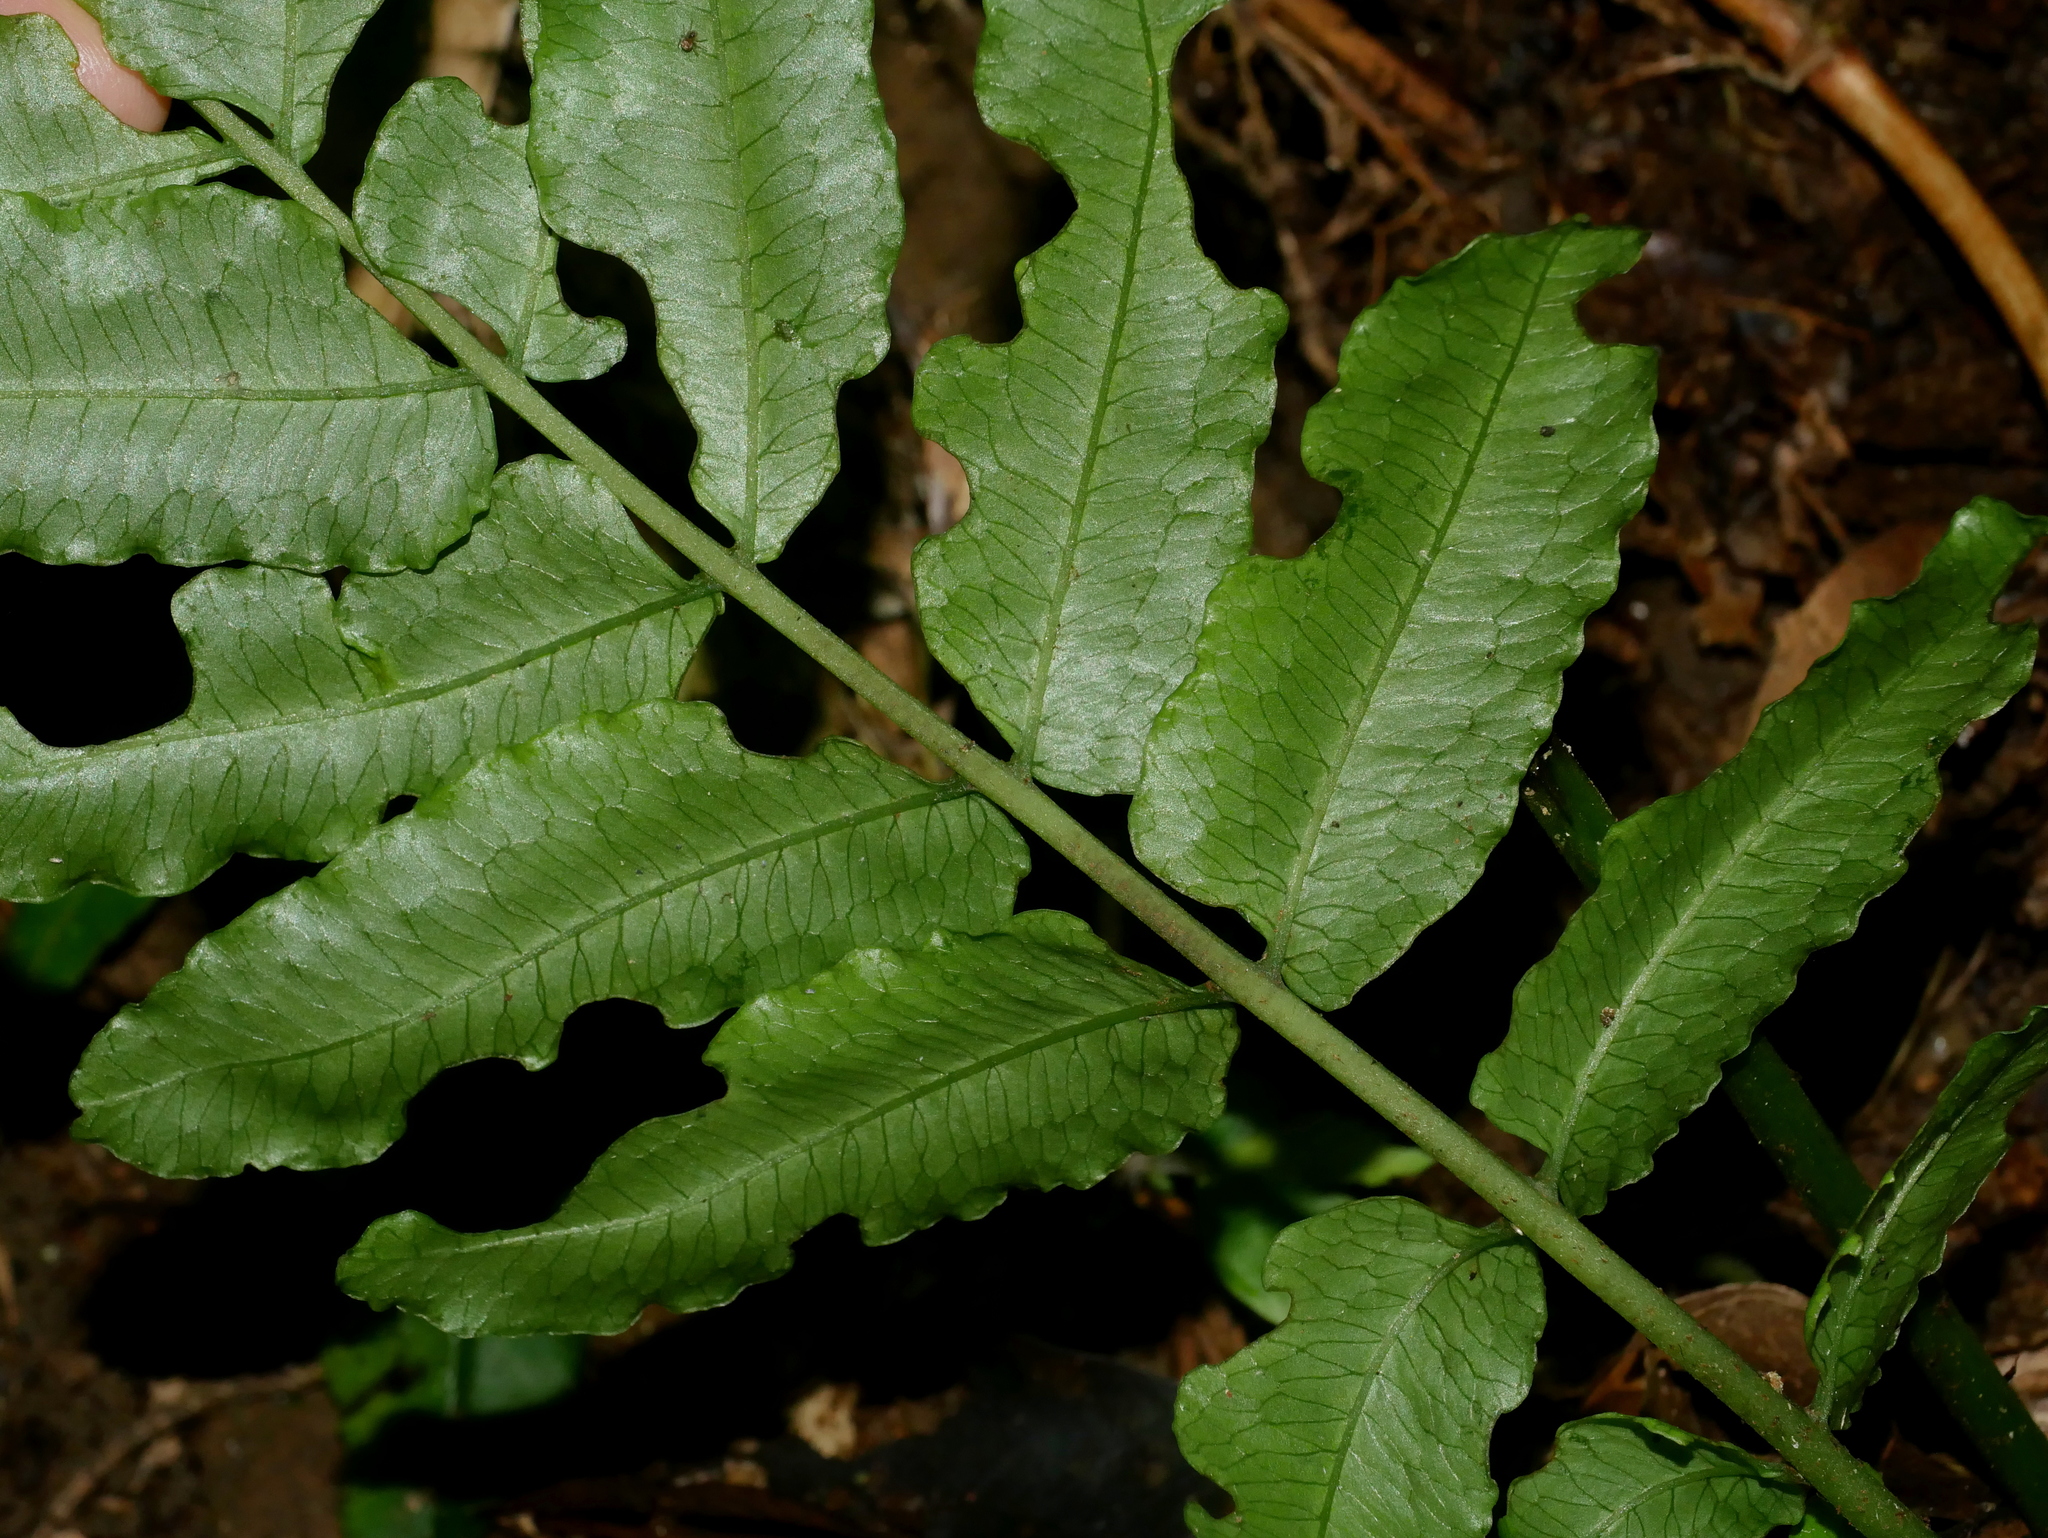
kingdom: Plantae
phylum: Tracheophyta
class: Polypodiopsida
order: Polypodiales
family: Diplaziopsidaceae
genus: Diplaziopsis
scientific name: Diplaziopsis javanica
